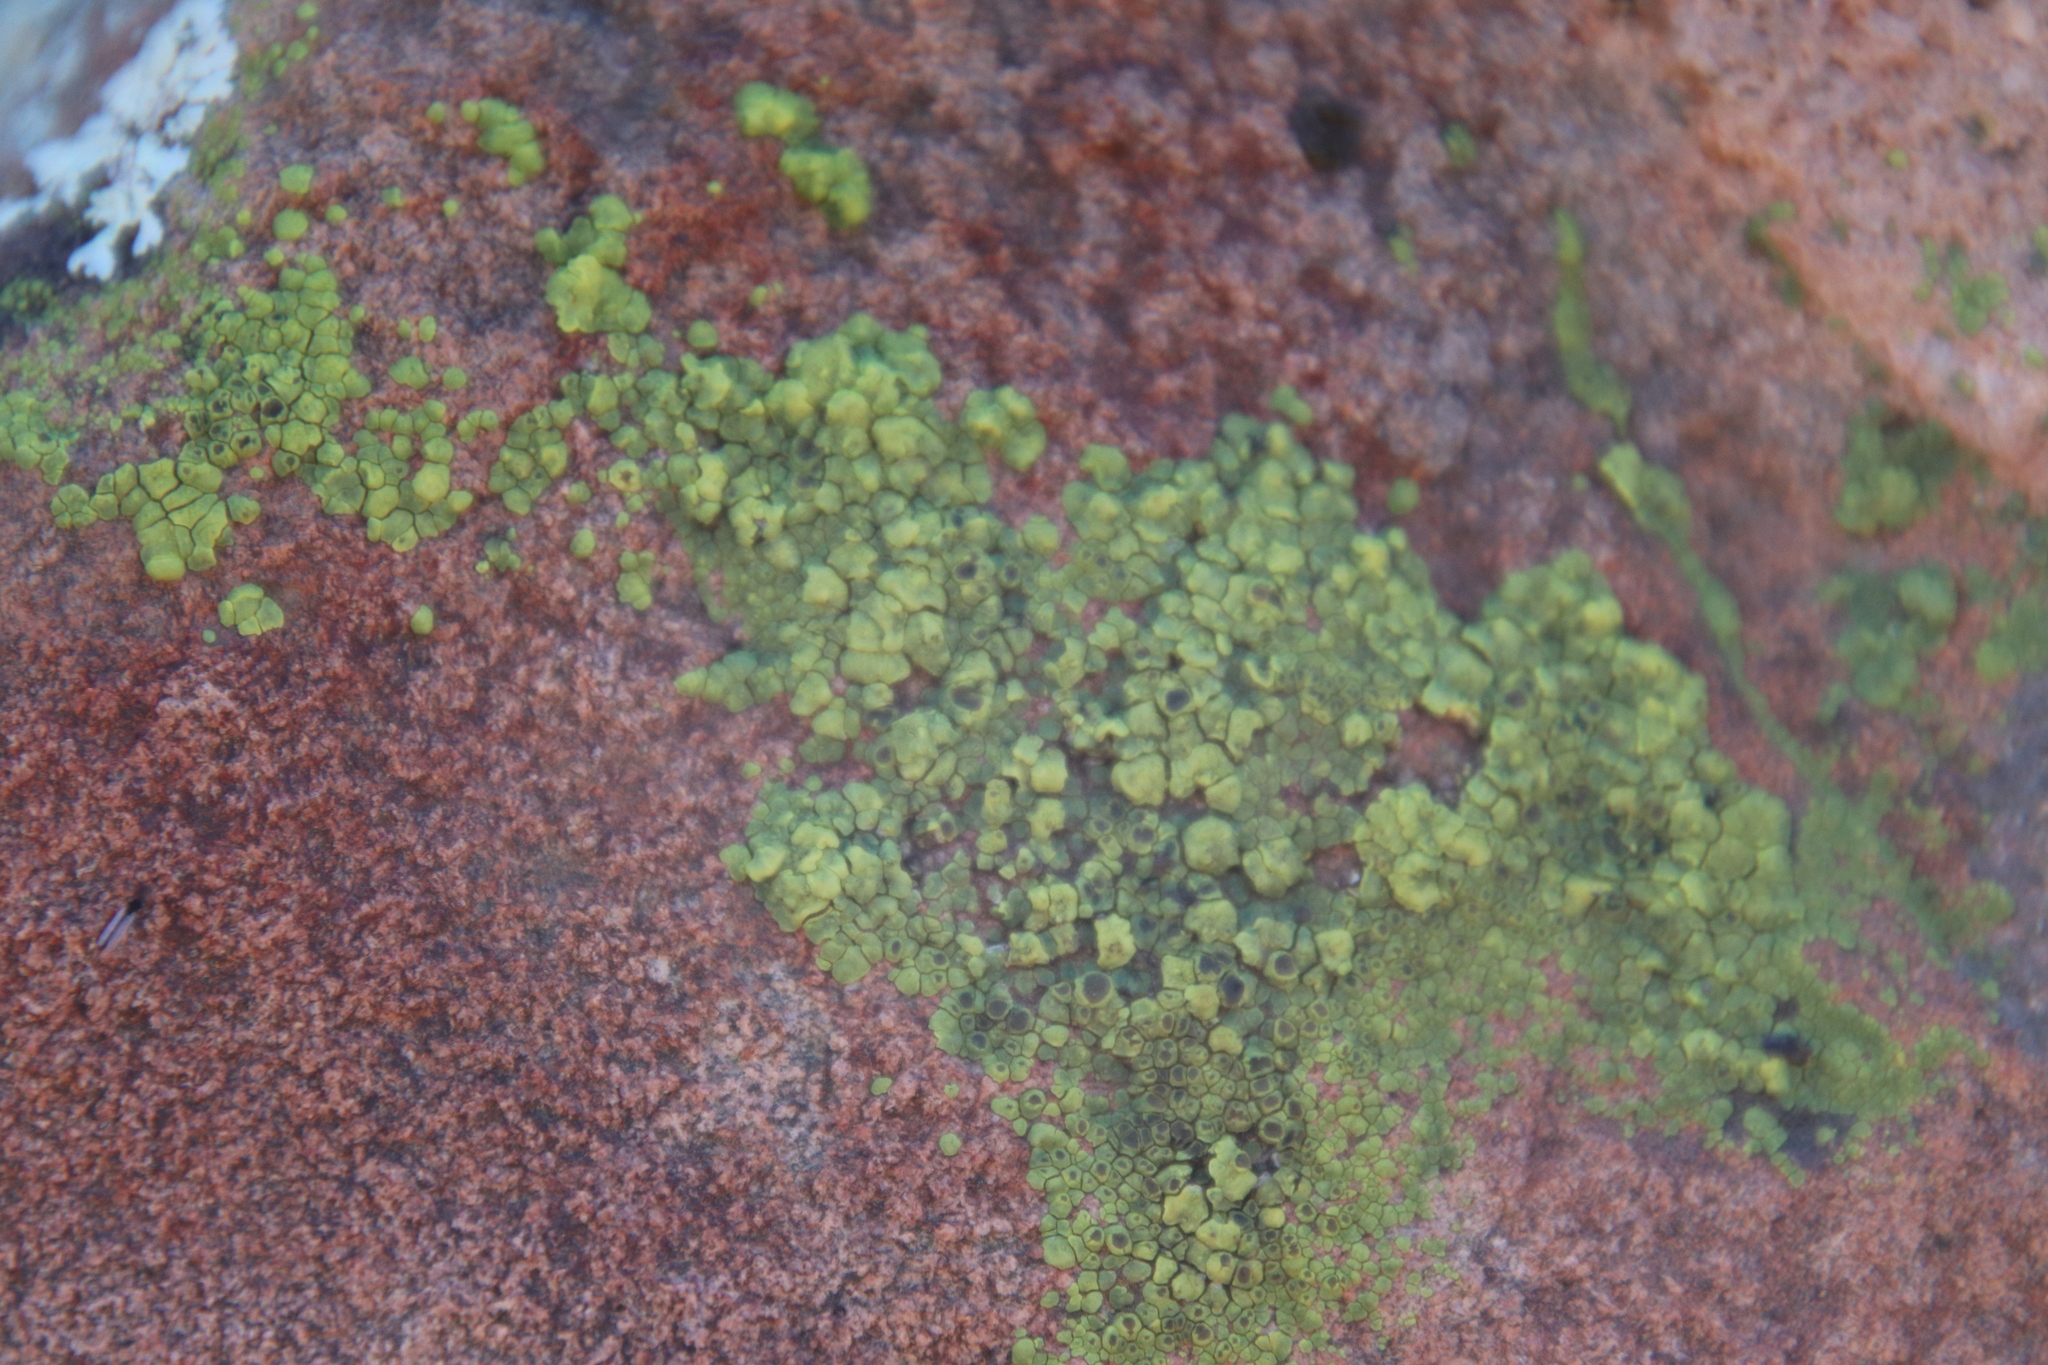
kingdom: Fungi
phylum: Ascomycota
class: Lecanoromycetes
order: Acarosporales
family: Acarosporaceae
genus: Acarospora
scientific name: Acarospora socialis
